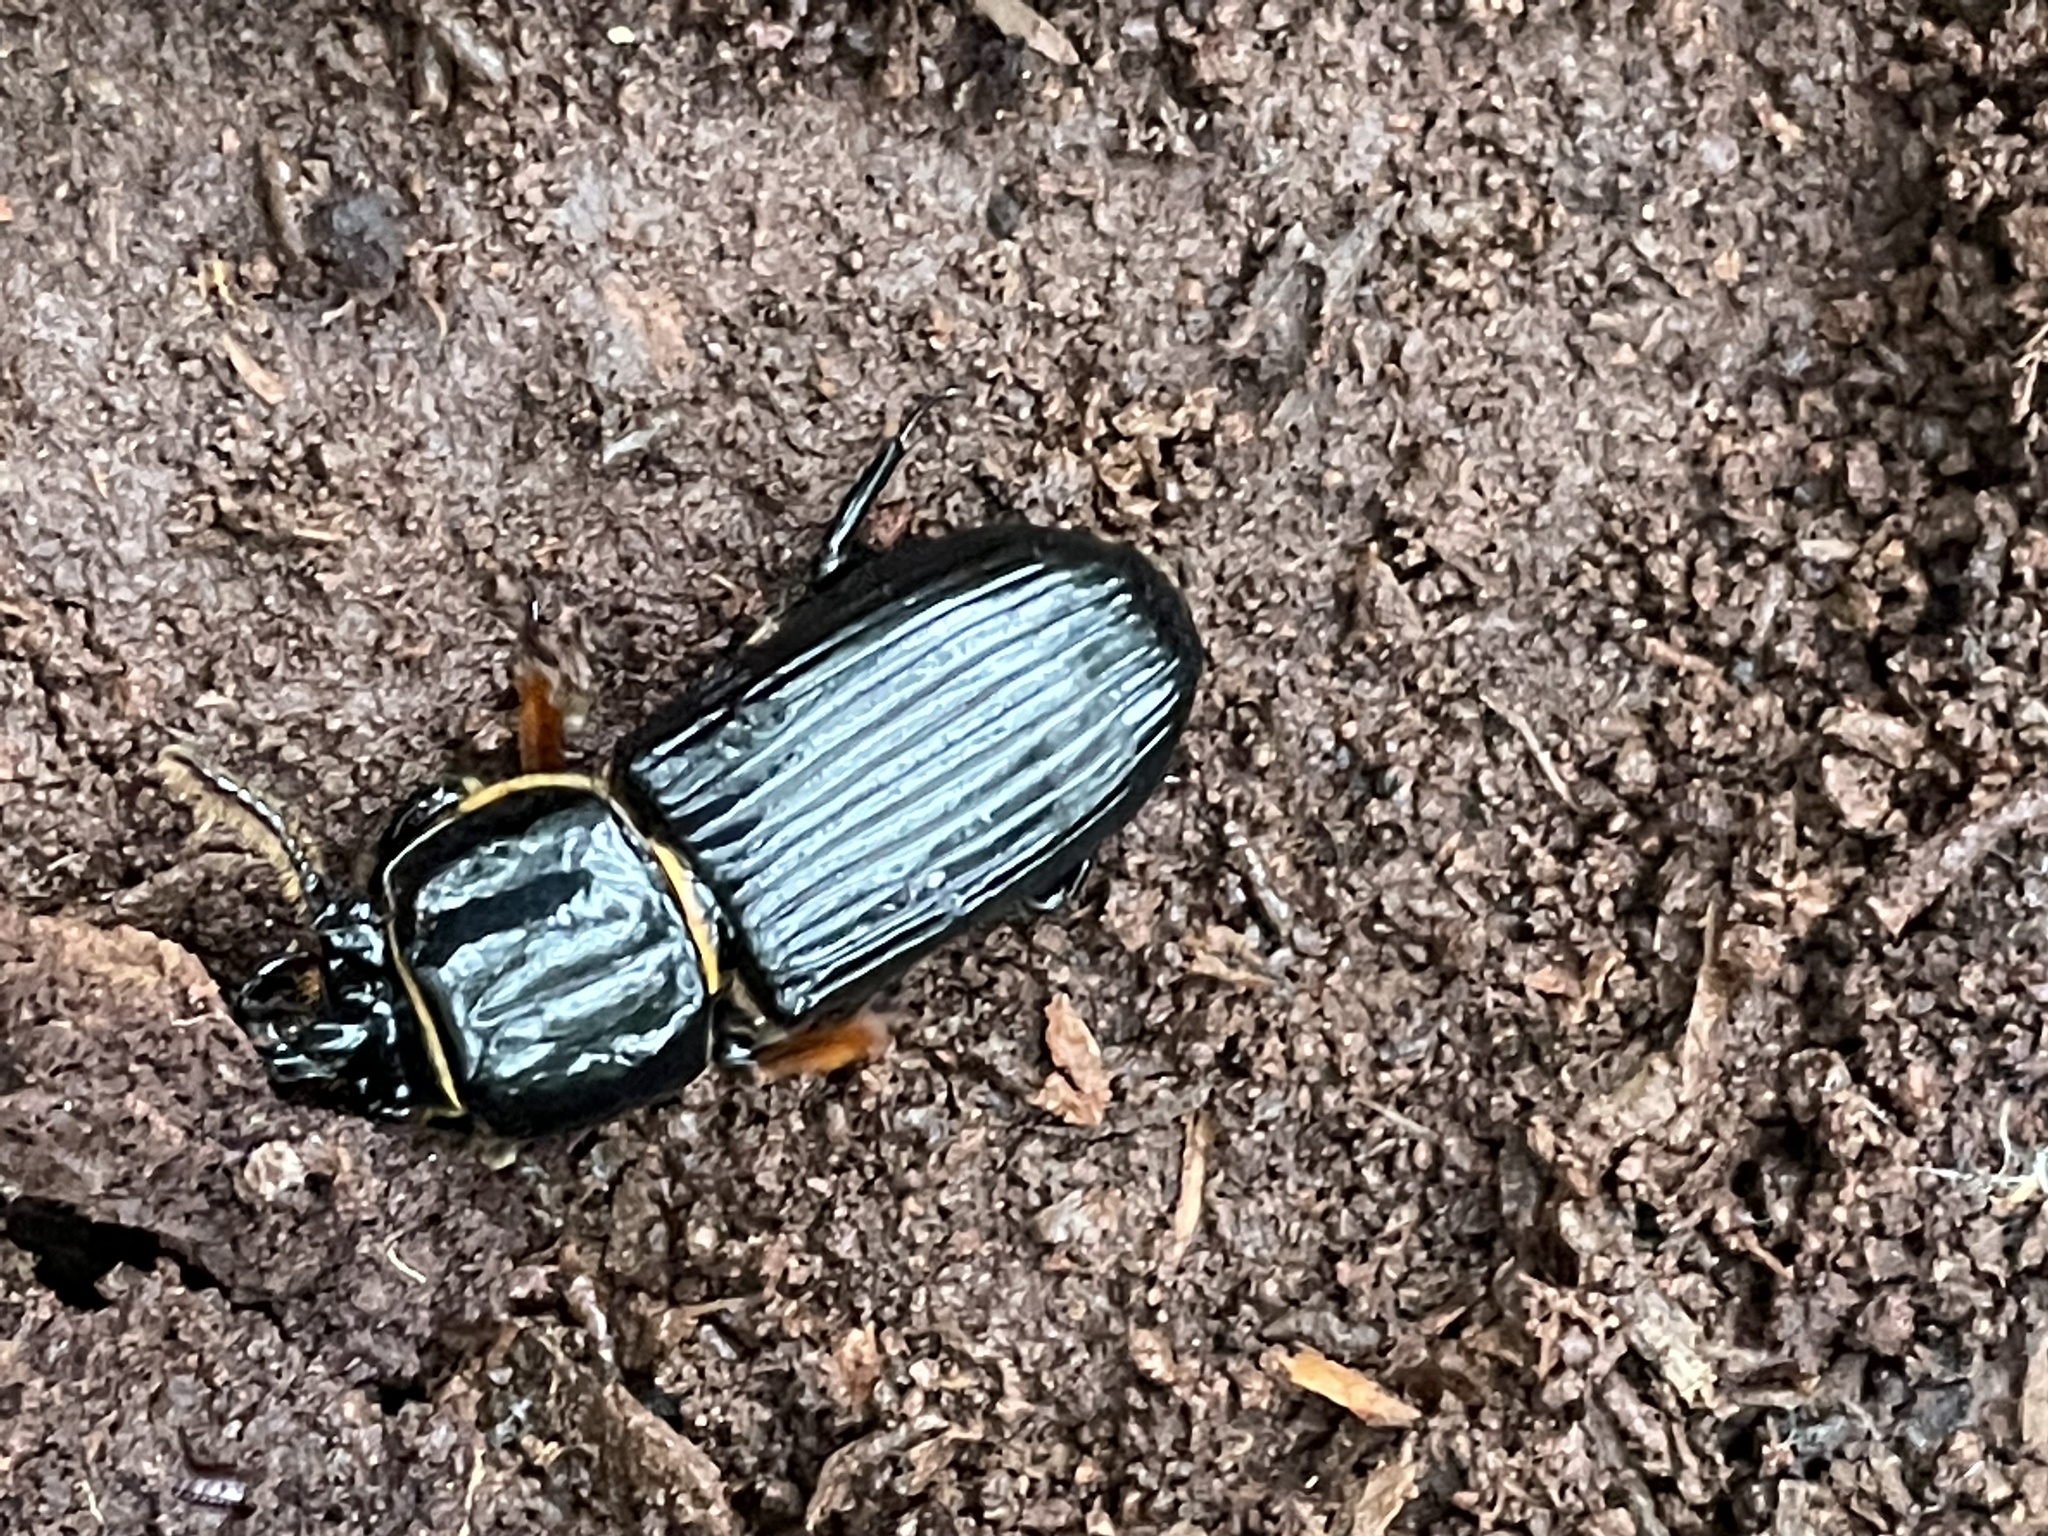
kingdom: Animalia
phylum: Arthropoda
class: Insecta
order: Coleoptera
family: Passalidae
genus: Odontotaenius
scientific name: Odontotaenius disjunctus
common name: Patent leather beetle
